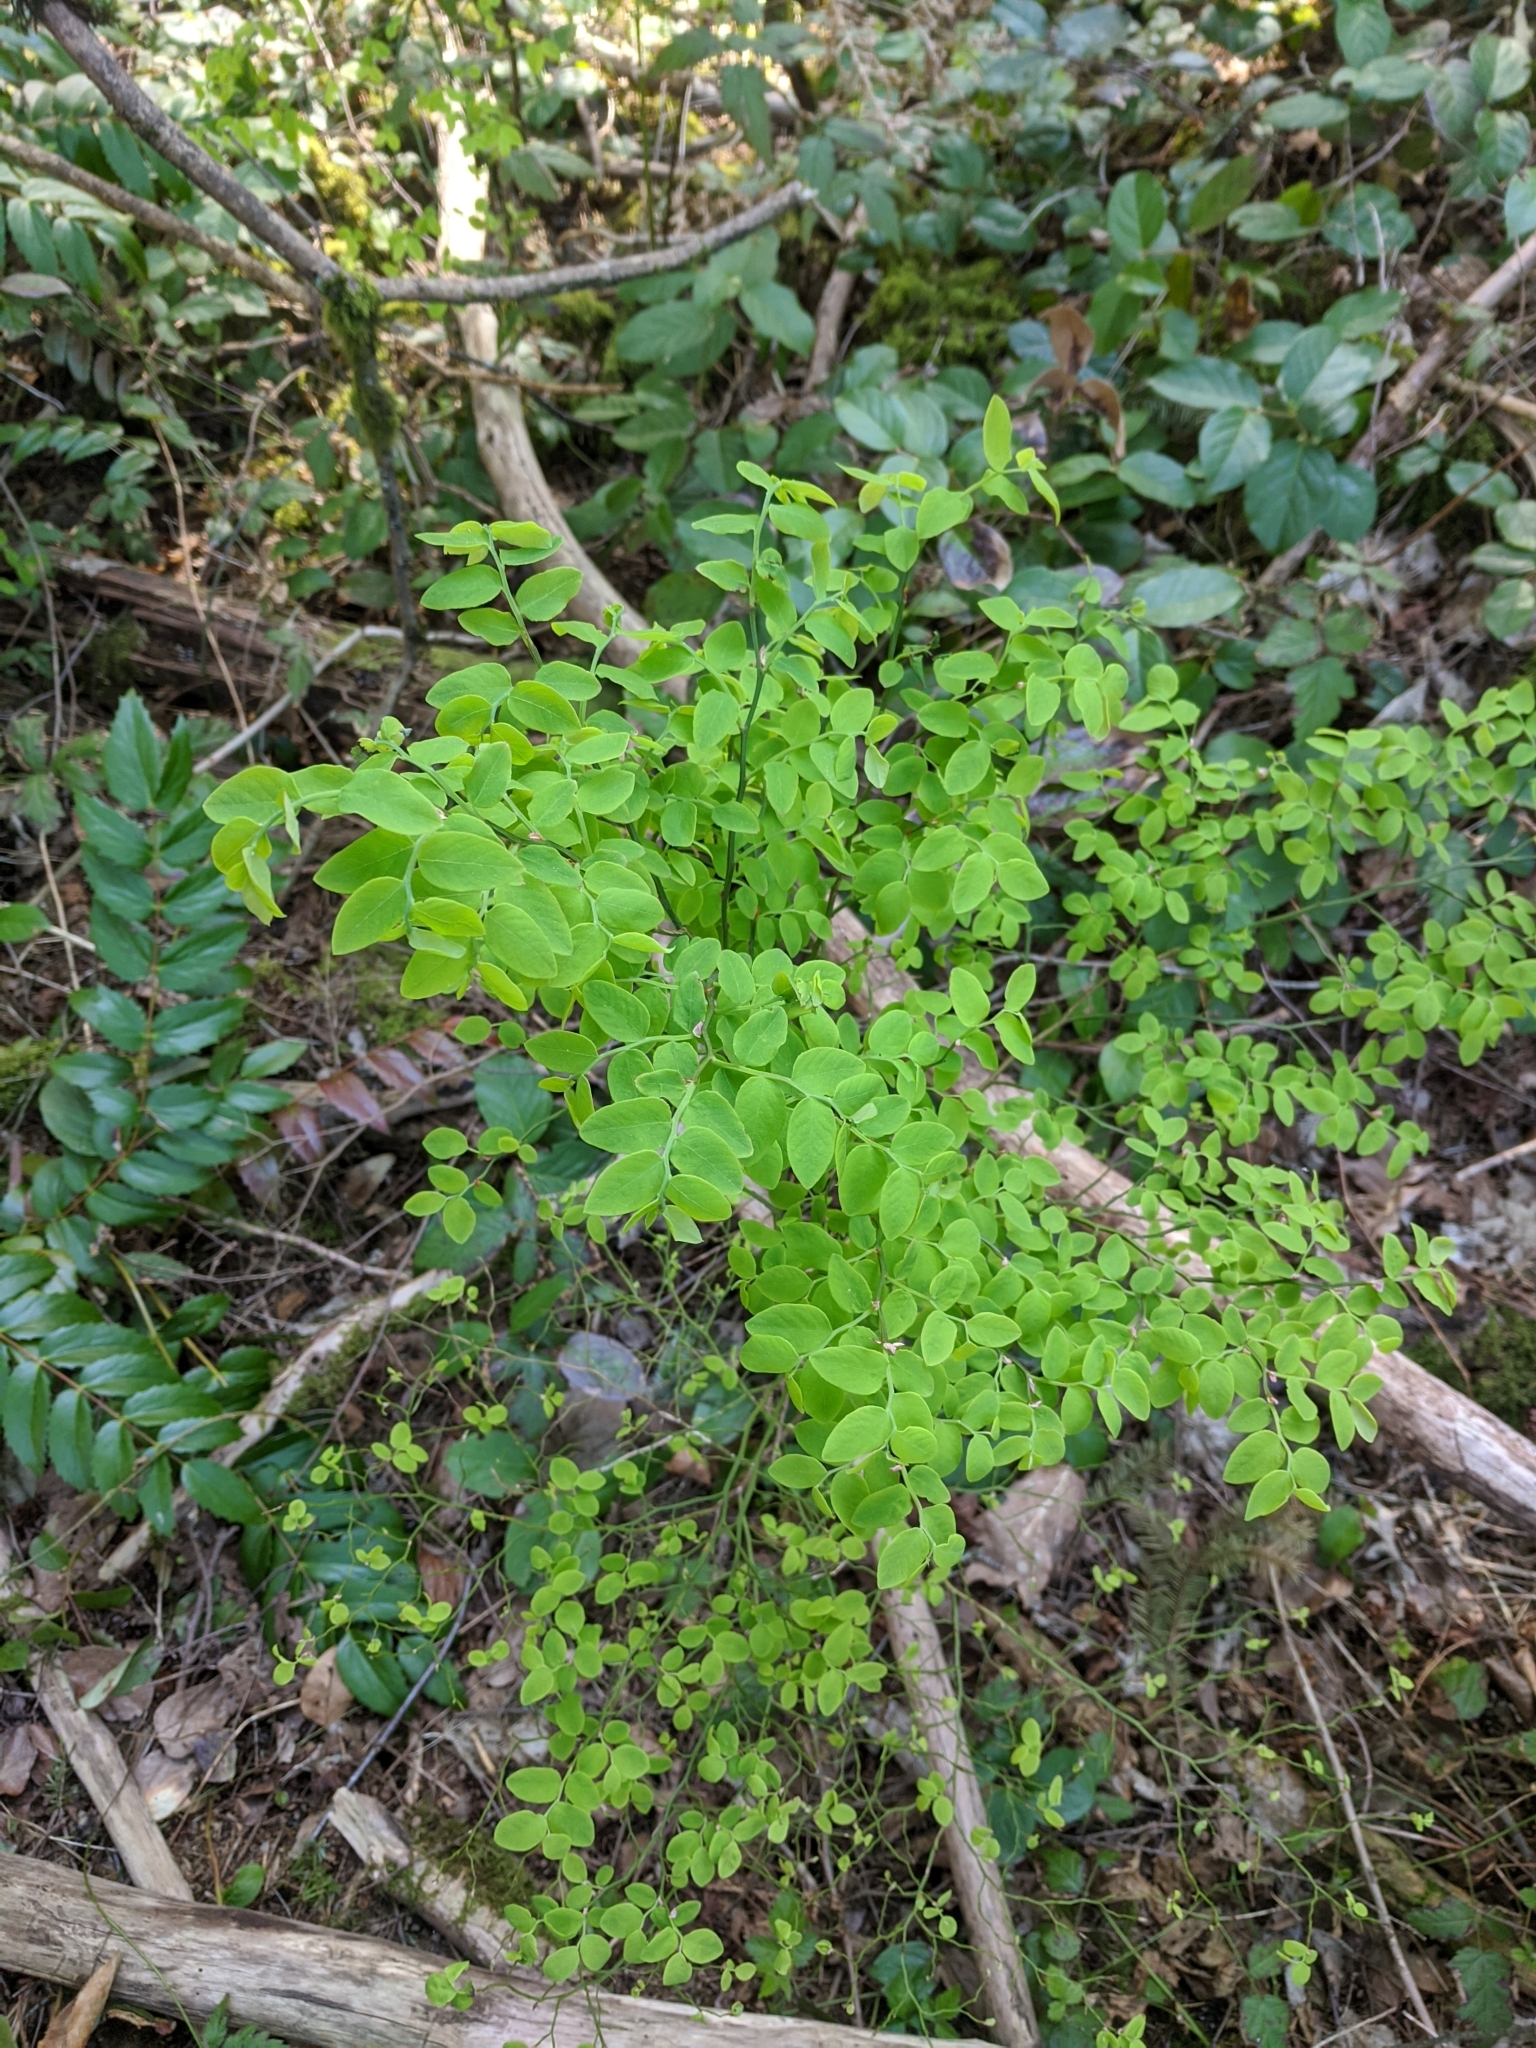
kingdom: Plantae
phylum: Tracheophyta
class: Magnoliopsida
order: Ericales
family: Ericaceae
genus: Vaccinium
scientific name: Vaccinium parvifolium
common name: Red-huckleberry
